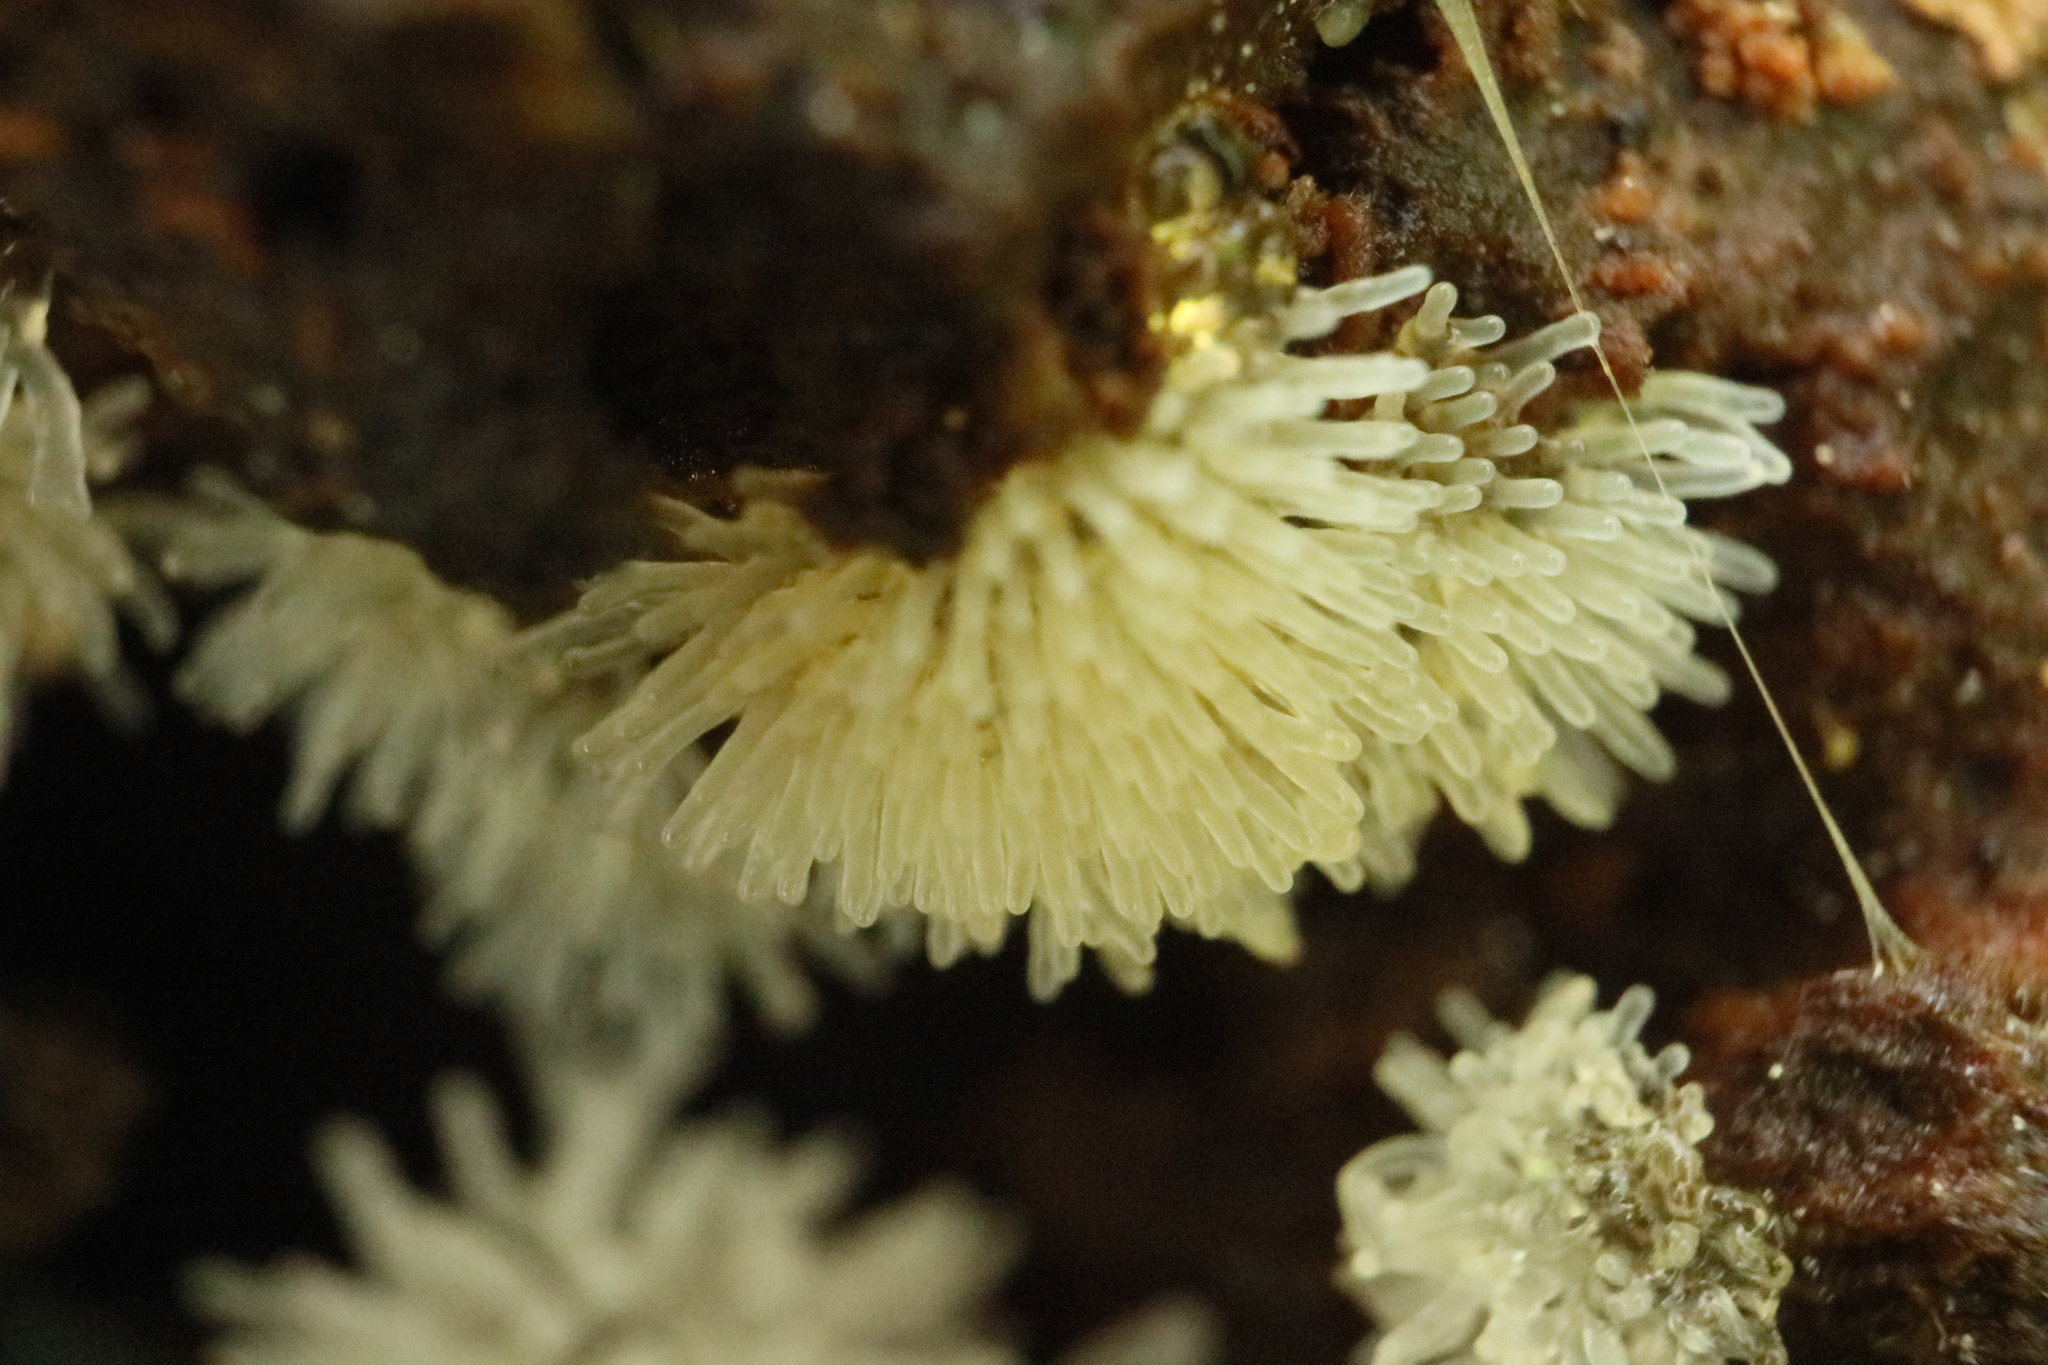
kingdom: Protozoa
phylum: Mycetozoa
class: Protosteliomycetes
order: Ceratiomyxales
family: Ceratiomyxaceae
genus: Ceratiomyxa
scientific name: Ceratiomyxa fruticulosa
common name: Honeycomb coral slime mold
